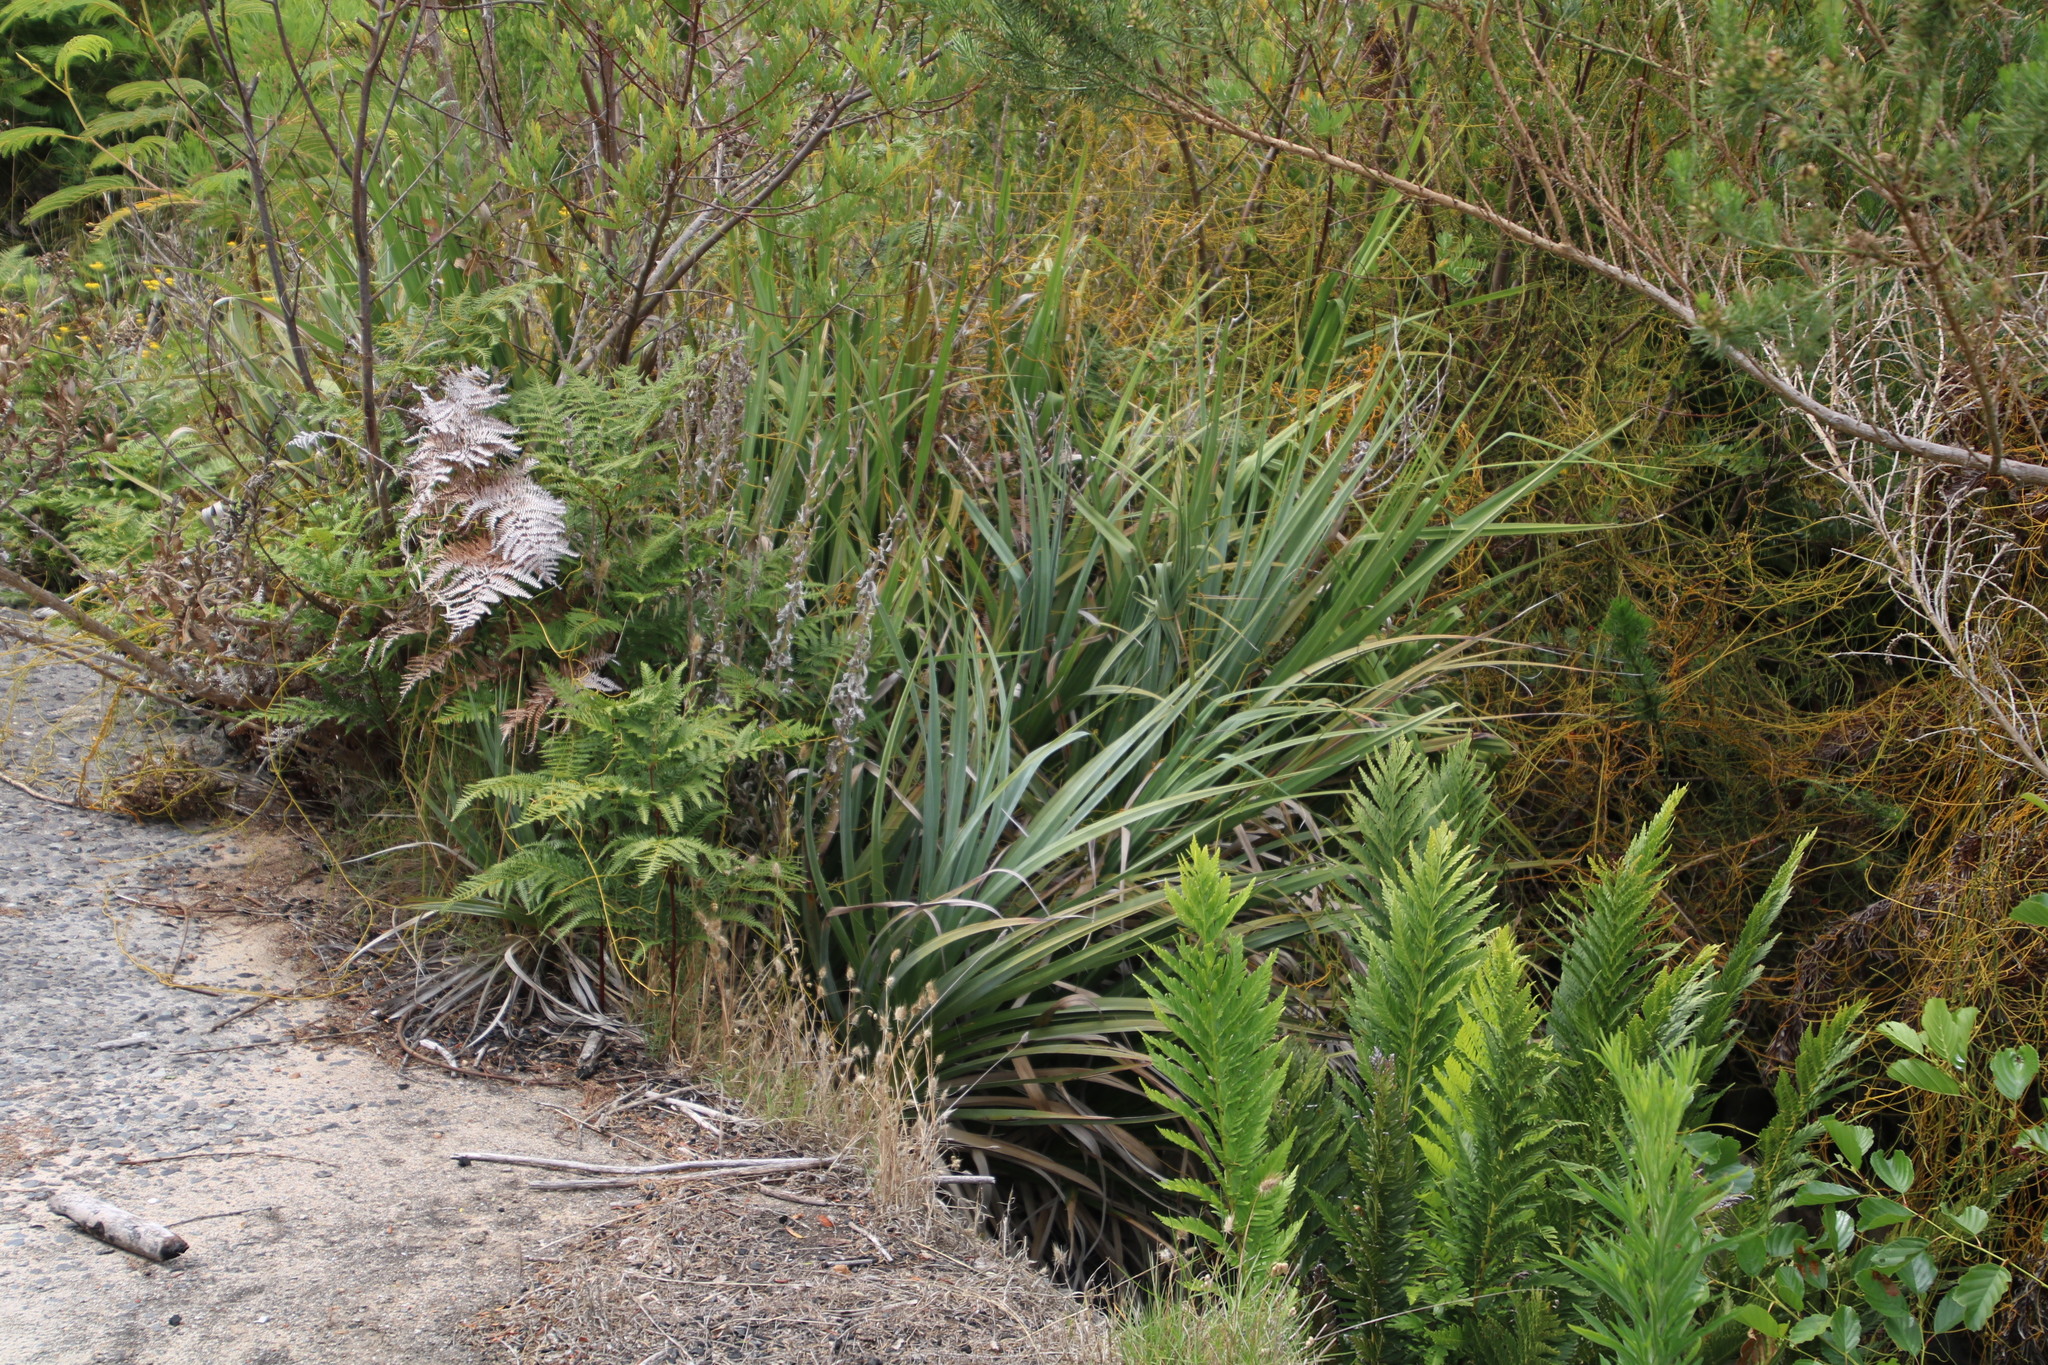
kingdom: Plantae
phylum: Tracheophyta
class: Liliopsida
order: Poales
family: Thurniaceae
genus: Prionium
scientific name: Prionium serratum
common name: Palmiet
